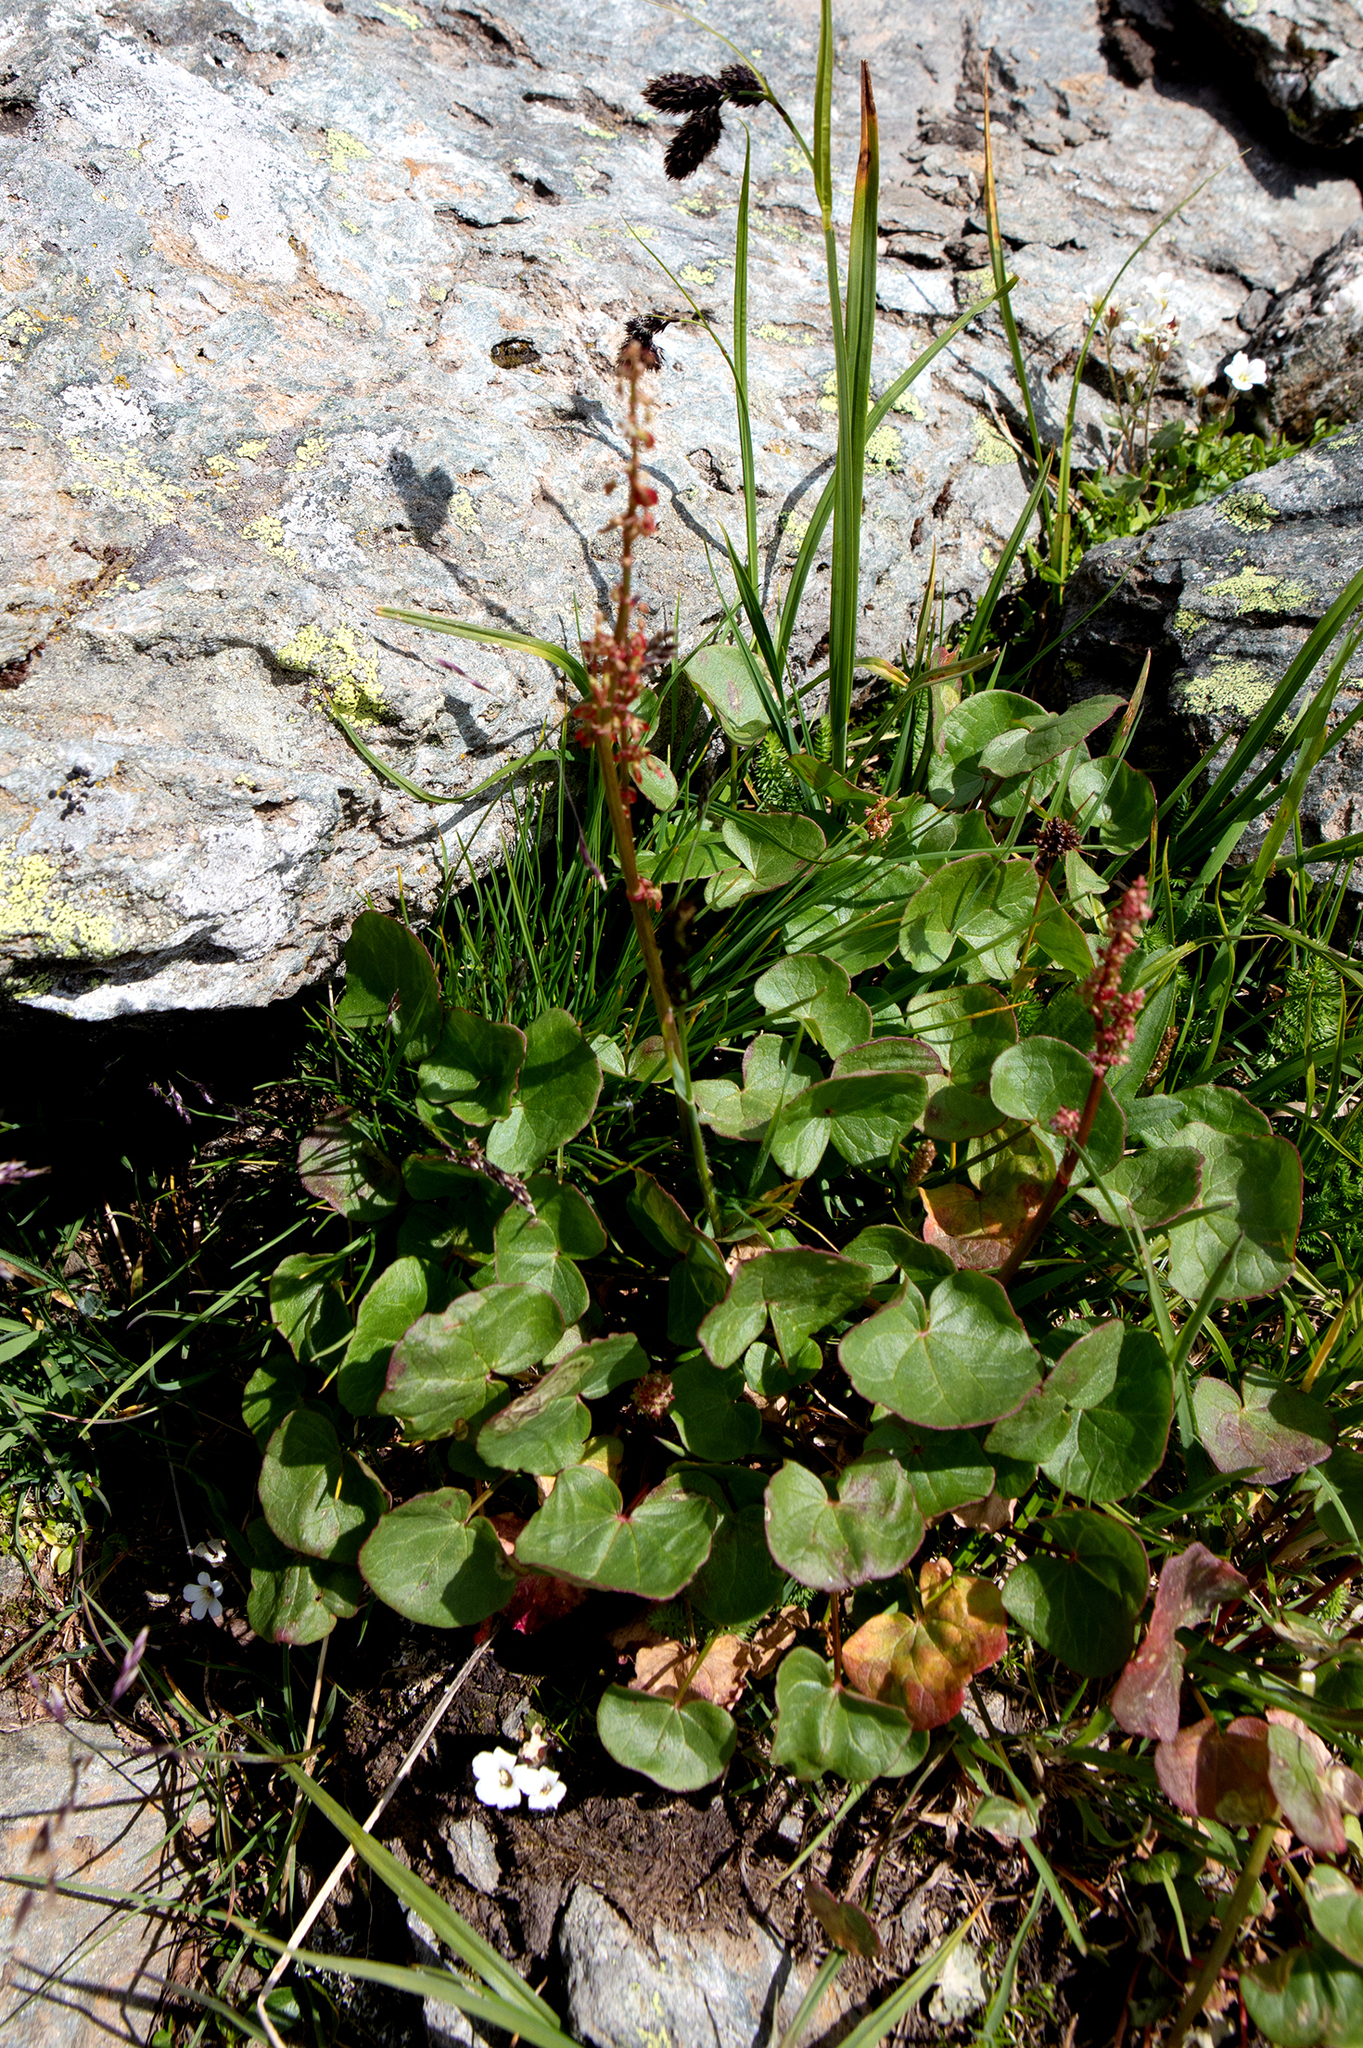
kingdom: Plantae
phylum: Tracheophyta
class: Magnoliopsida
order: Caryophyllales
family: Polygonaceae
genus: Oxyria
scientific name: Oxyria digyna
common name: Alpine mountain-sorrel
